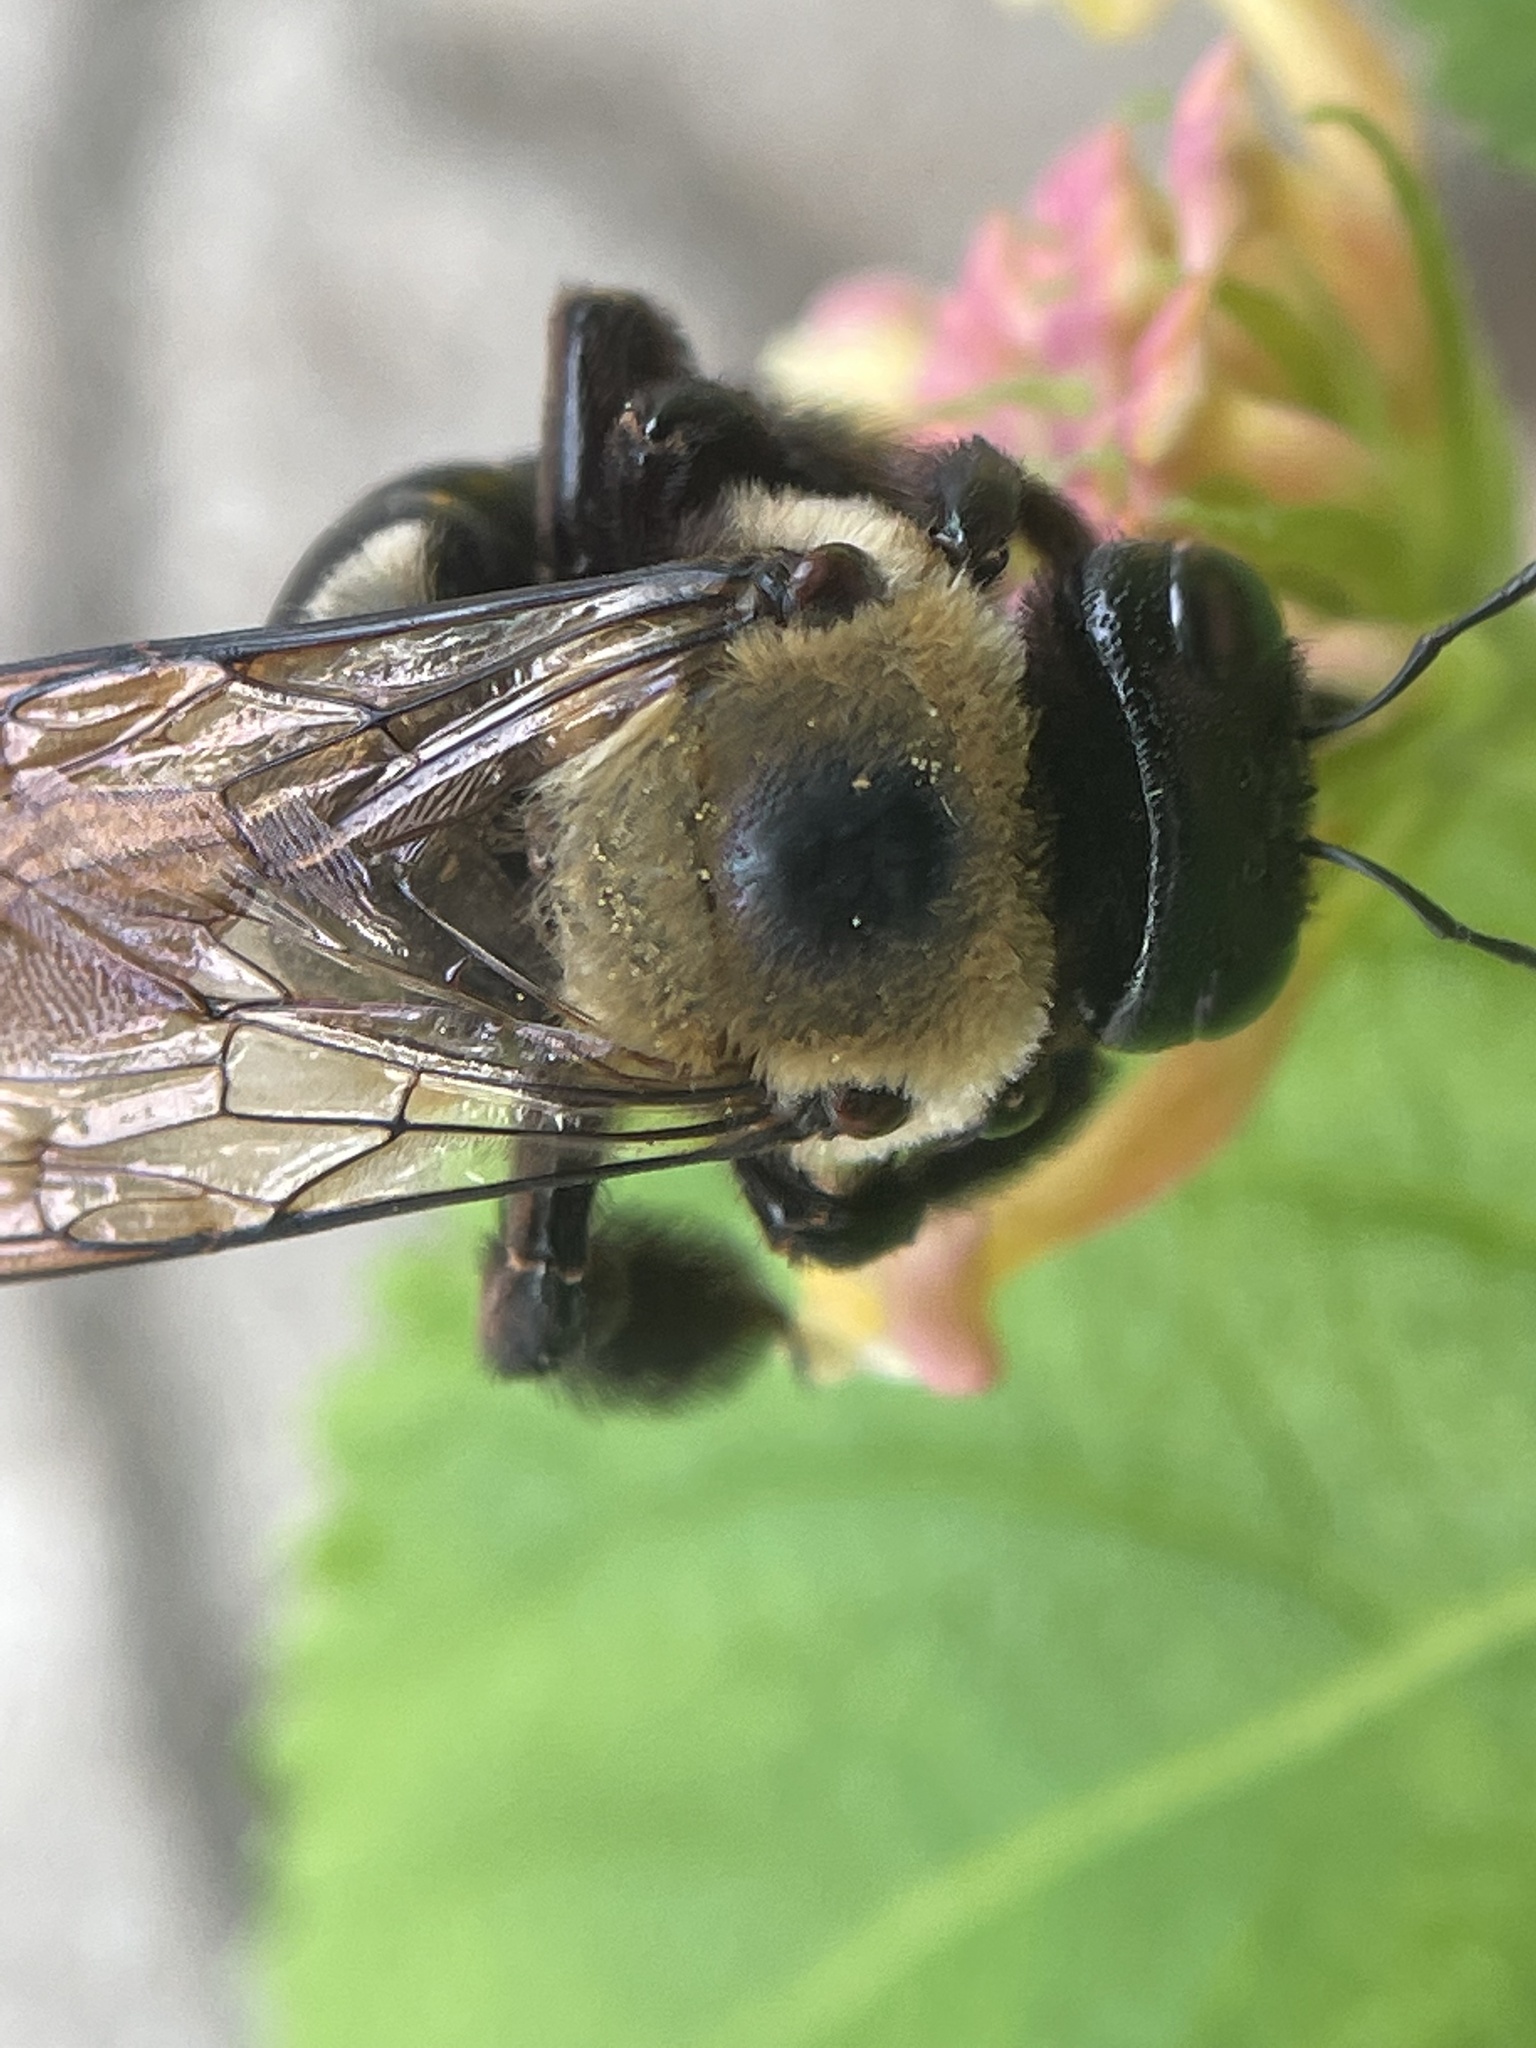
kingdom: Animalia
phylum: Arthropoda
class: Insecta
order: Hymenoptera
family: Apidae
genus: Xylocopa
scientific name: Xylocopa virginica
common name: Carpenter bee
